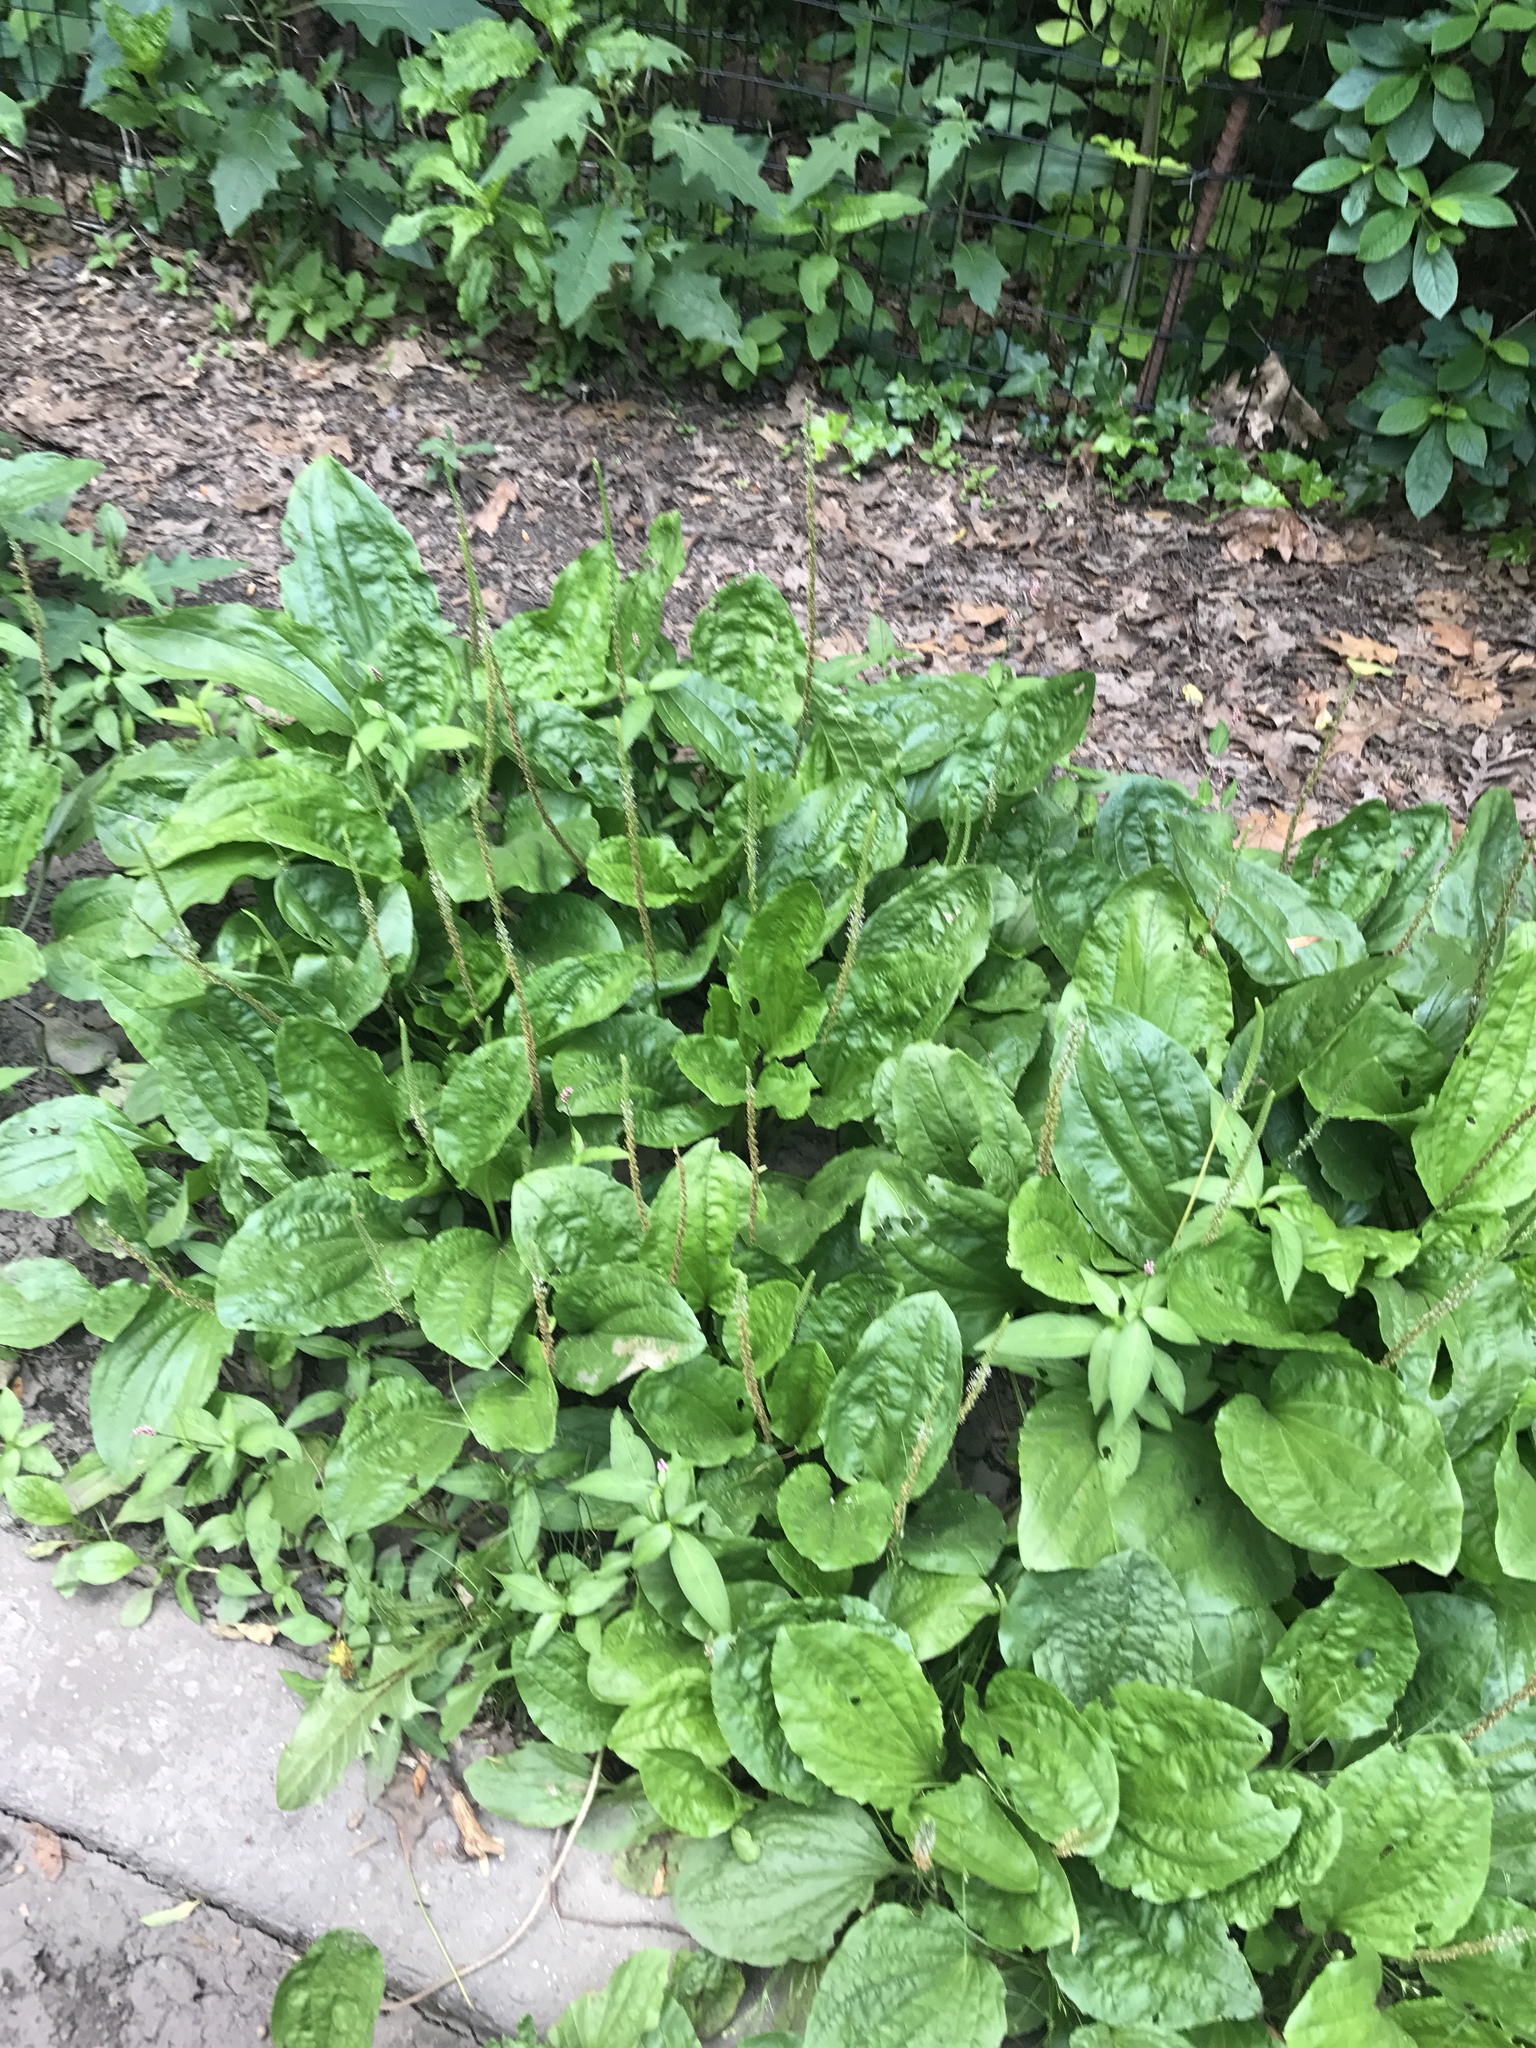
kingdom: Plantae
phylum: Tracheophyta
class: Magnoliopsida
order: Lamiales
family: Plantaginaceae
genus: Plantago
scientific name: Plantago major
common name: Common plantain
